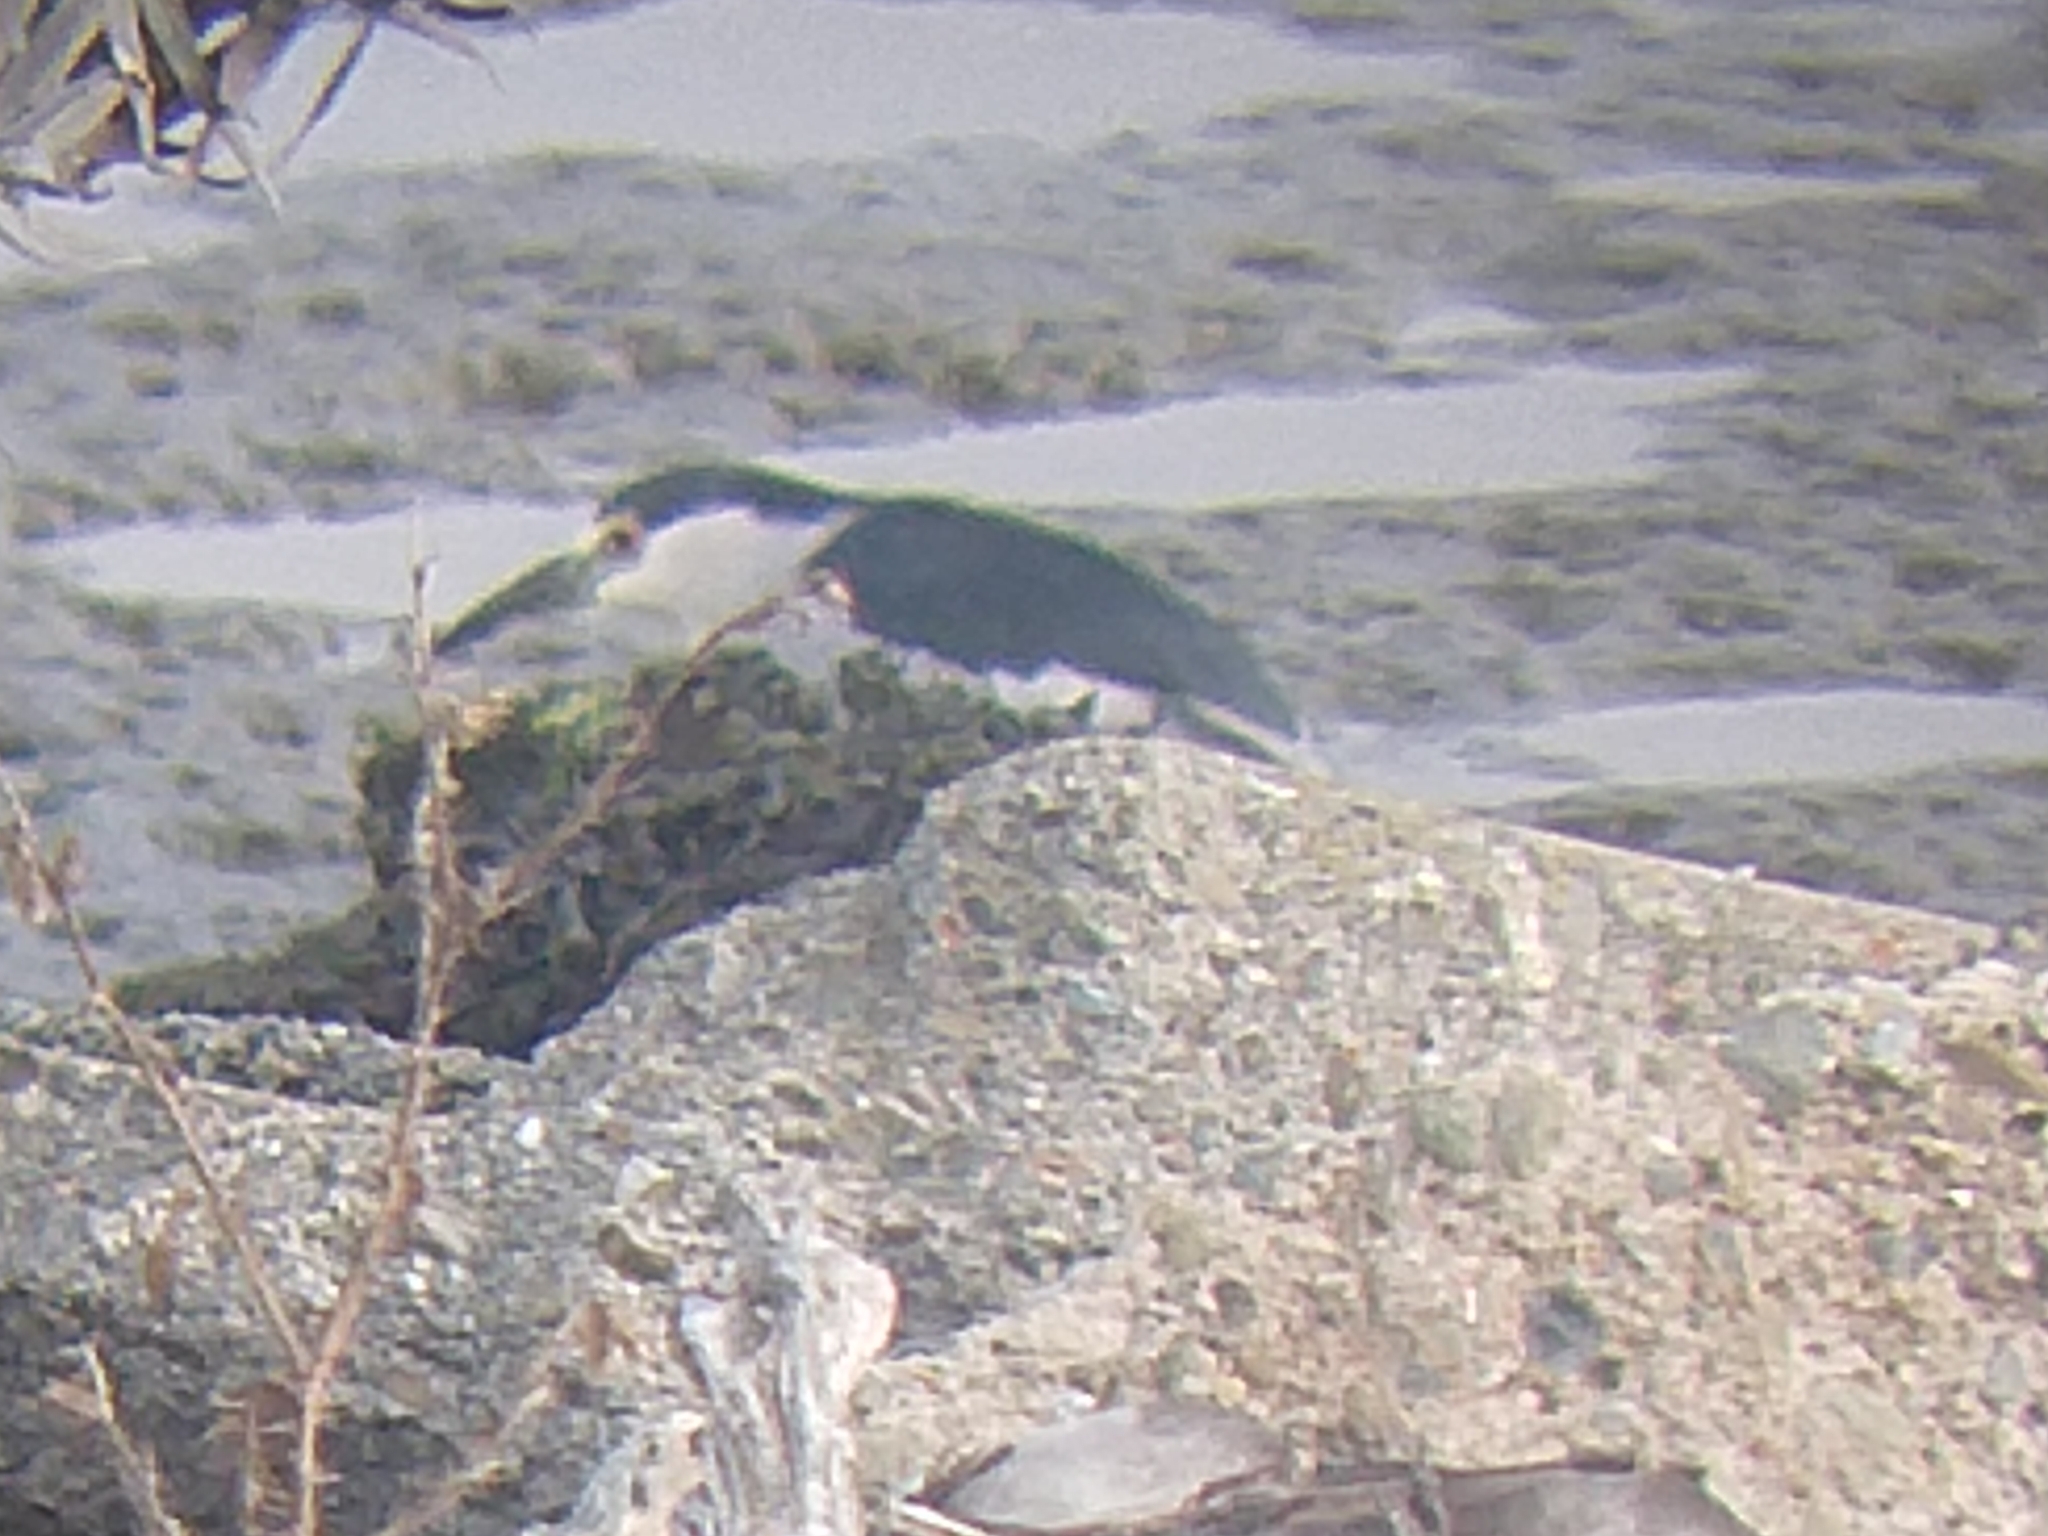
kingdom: Animalia
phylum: Chordata
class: Aves
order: Pelecaniformes
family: Ardeidae
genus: Nycticorax
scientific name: Nycticorax nycticorax
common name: Black-crowned night heron
